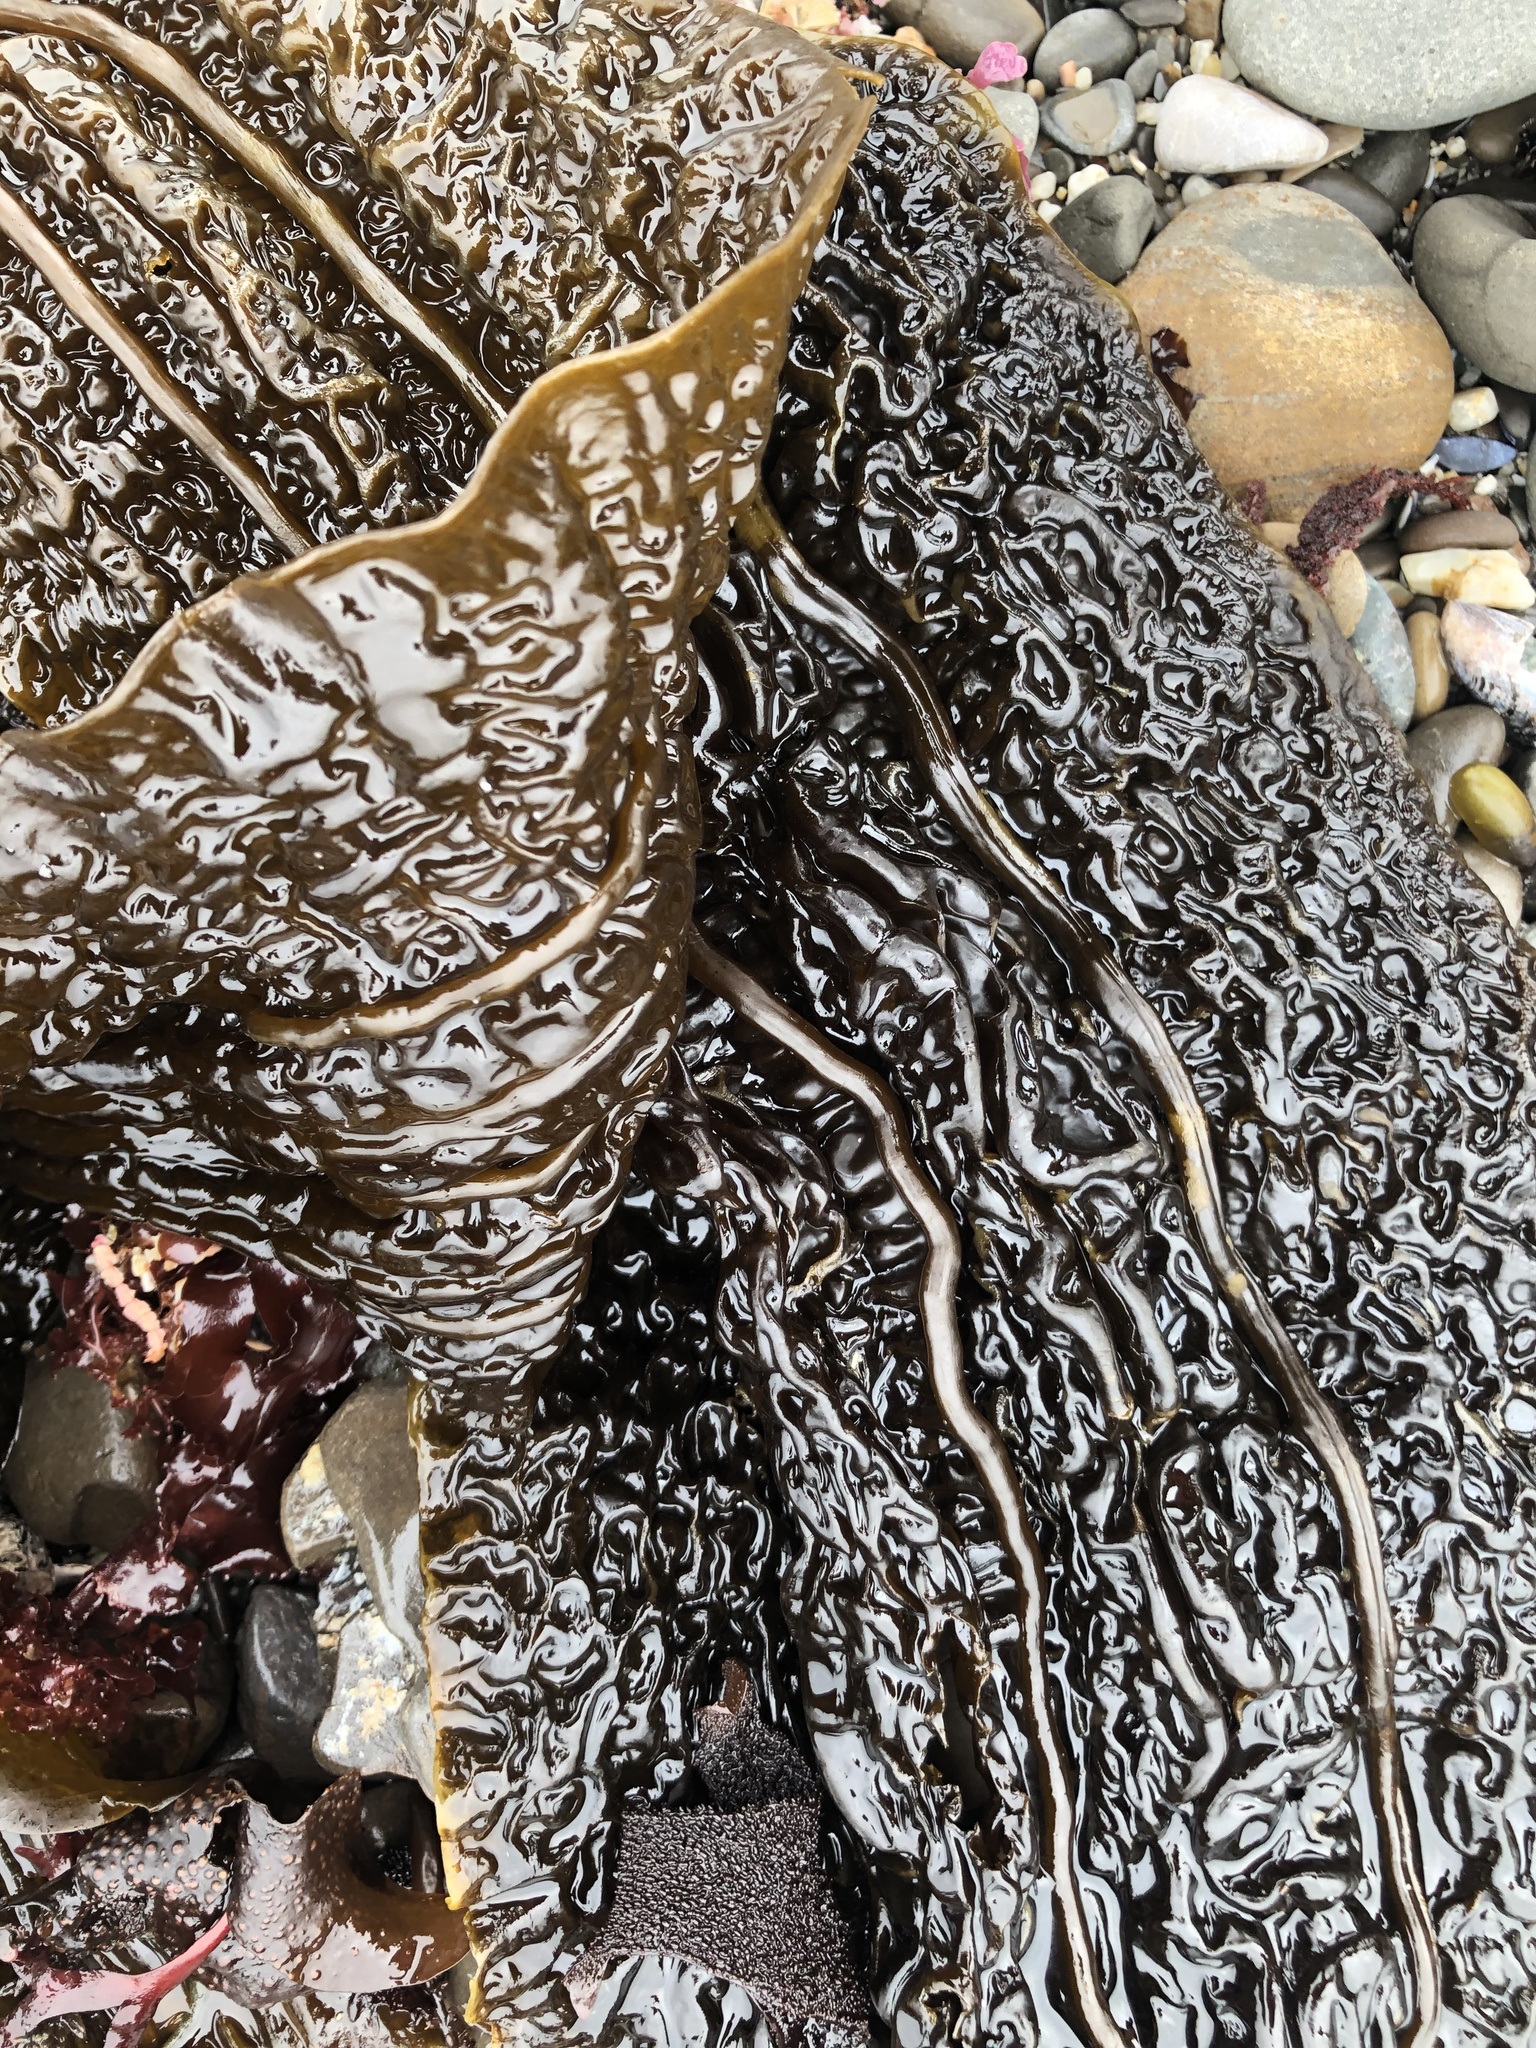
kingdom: Chromista
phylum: Ochrophyta
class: Phaeophyceae
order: Laminariales
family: Costariaceae
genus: Costaria
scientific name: Costaria costata
